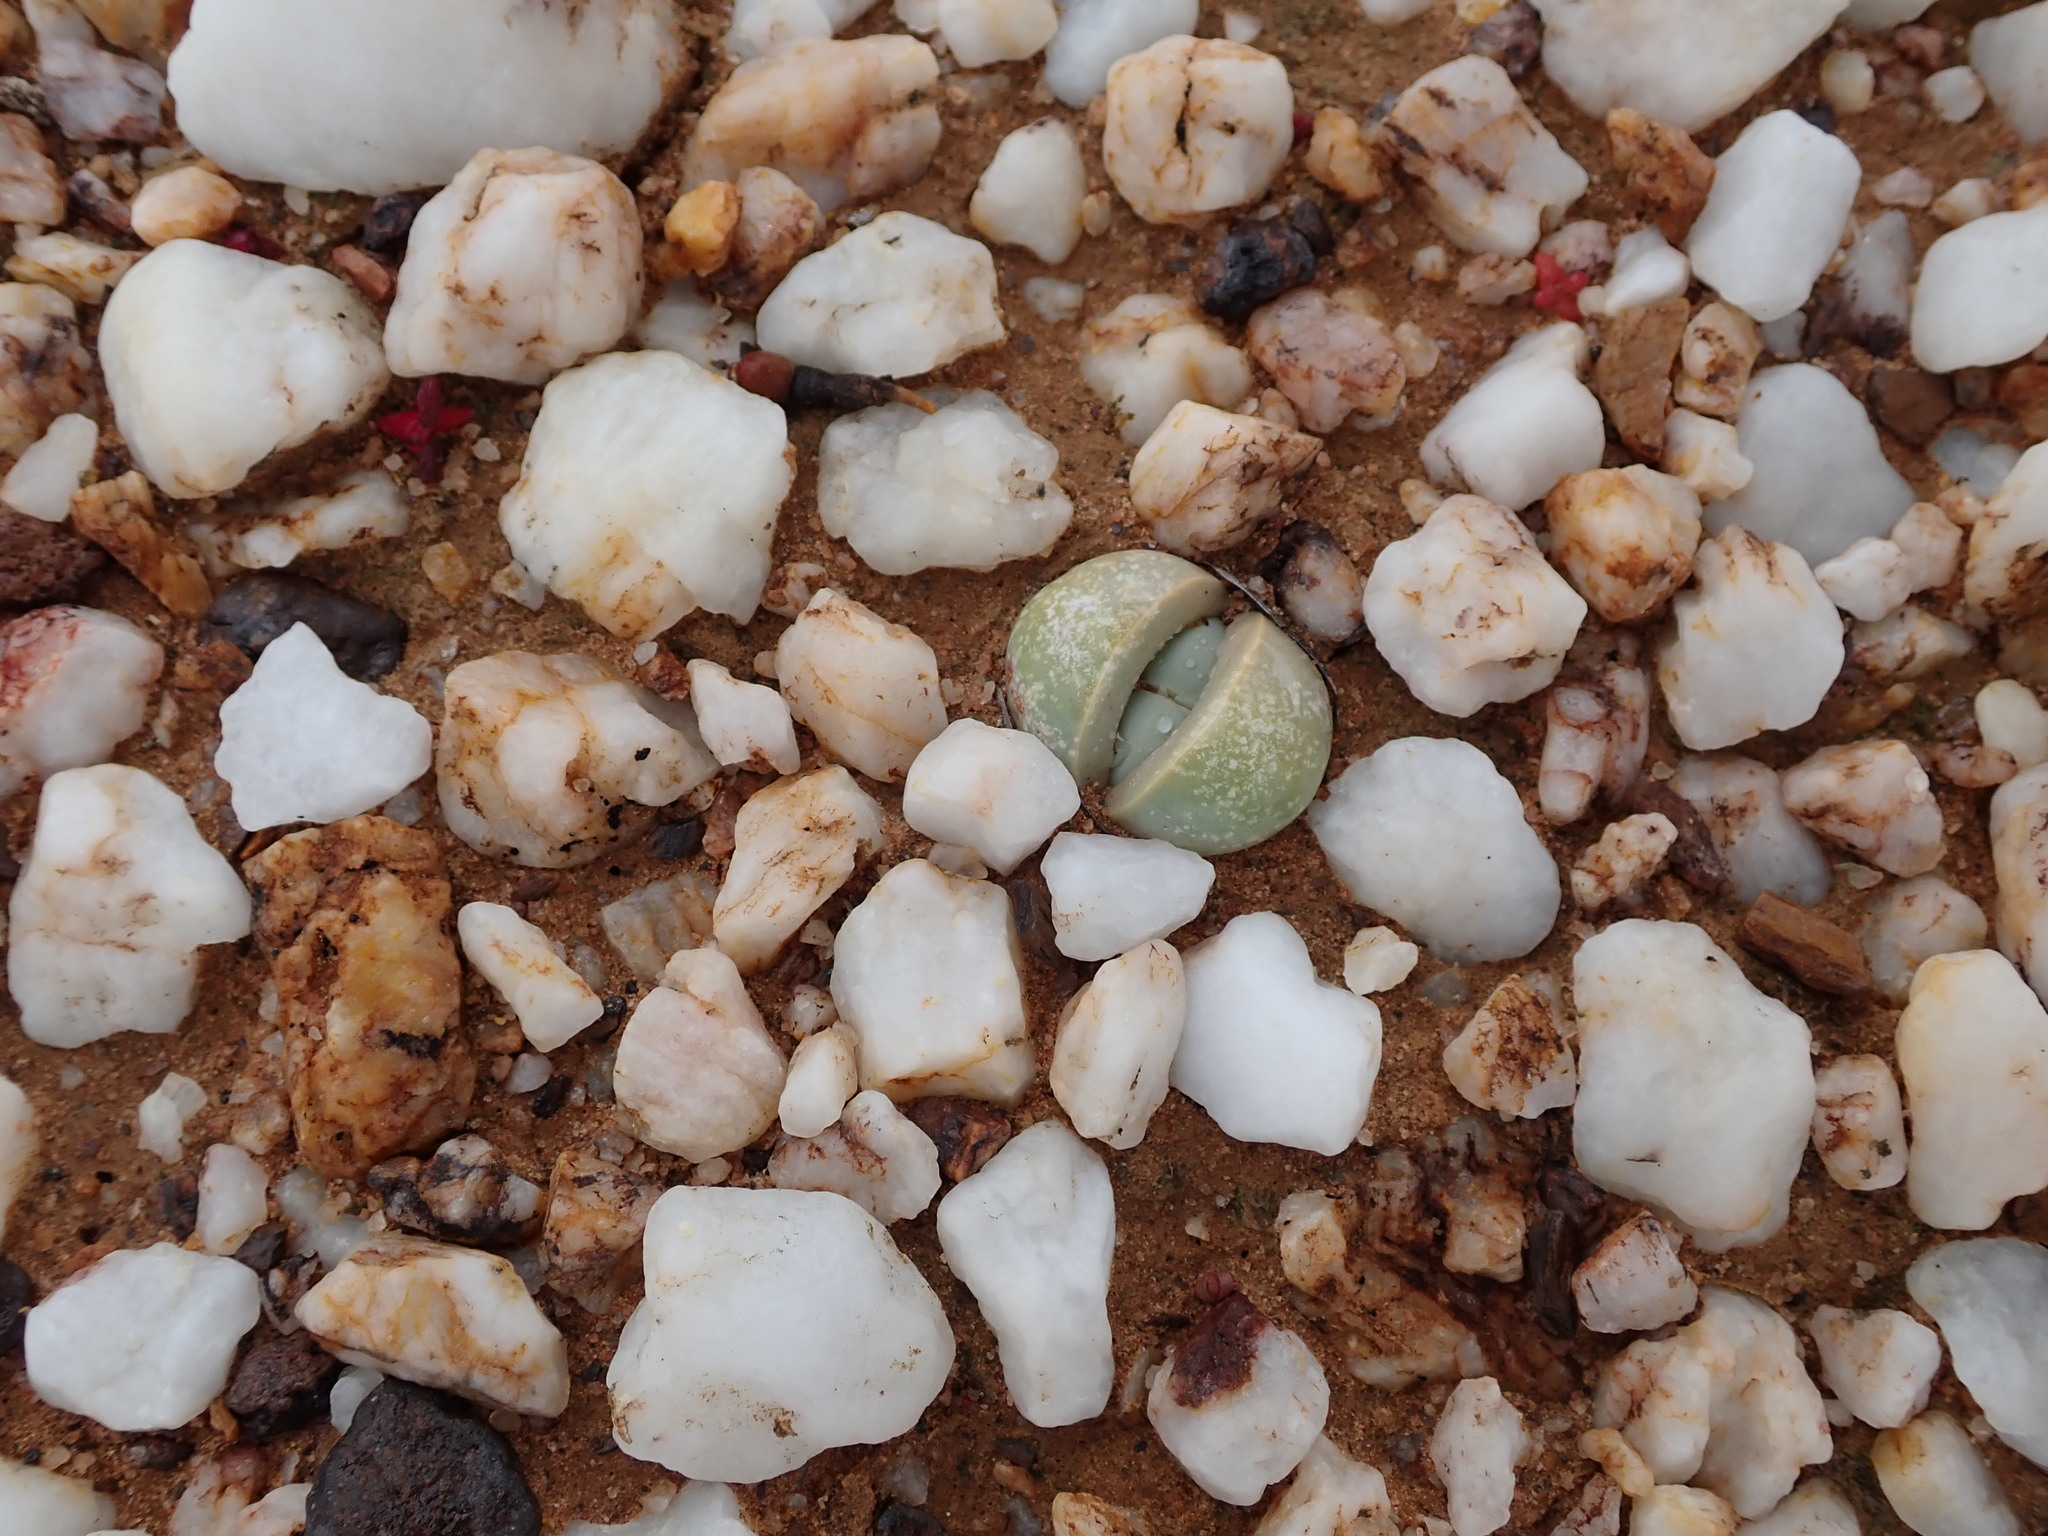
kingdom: Plantae
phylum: Tracheophyta
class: Magnoliopsida
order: Caryophyllales
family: Aizoaceae
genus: Argyroderma
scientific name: Argyroderma delaetii
